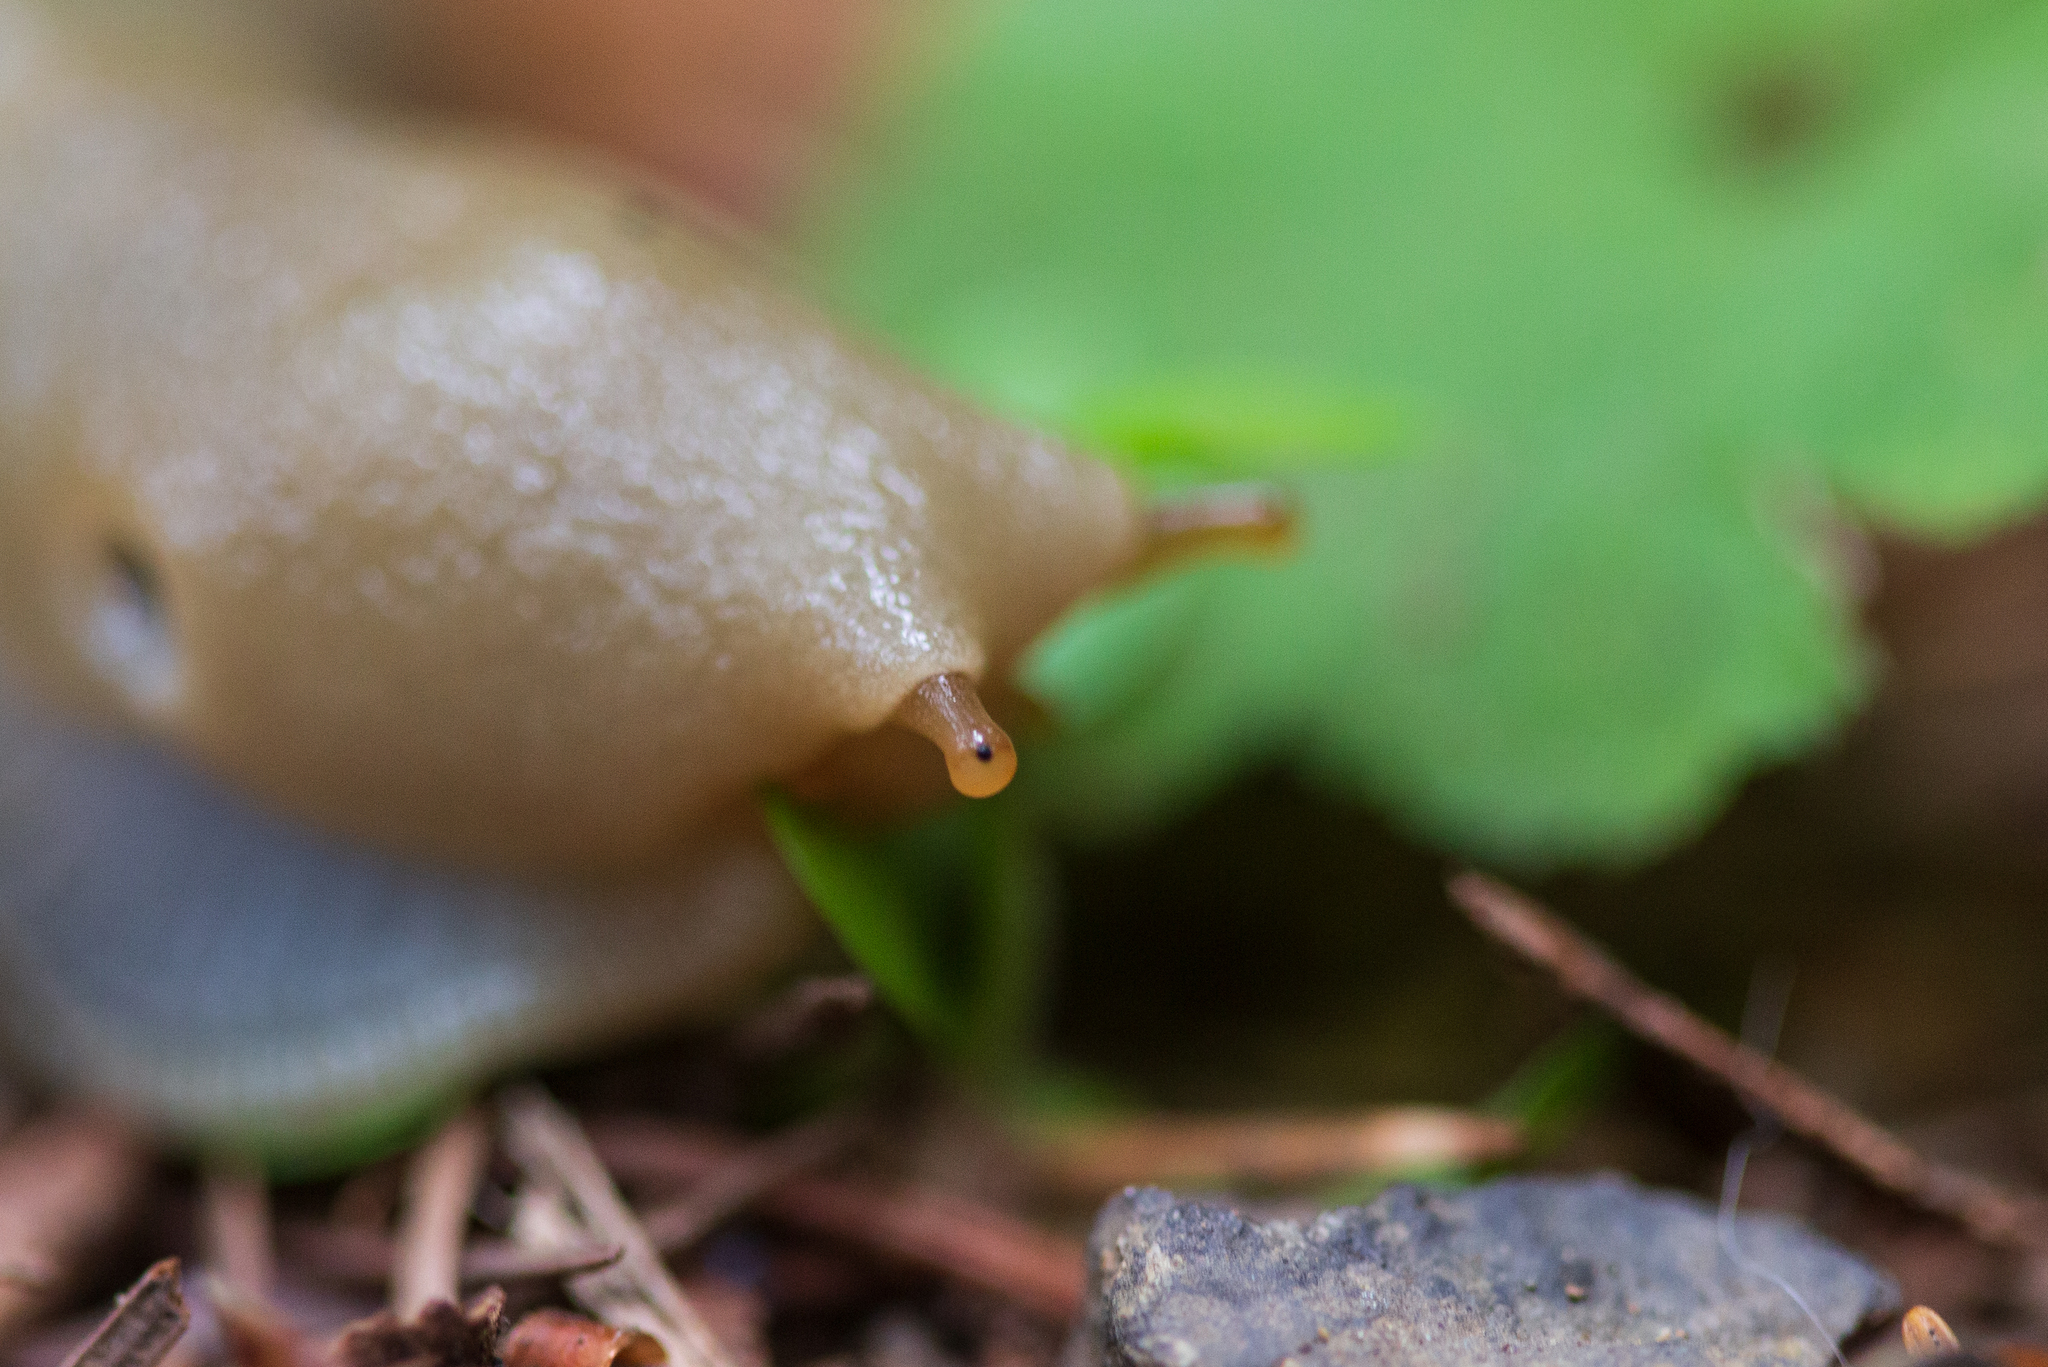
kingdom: Animalia
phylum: Mollusca
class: Gastropoda
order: Stylommatophora
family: Ariolimacidae
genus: Ariolimax
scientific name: Ariolimax columbianus
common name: Pacific banana slug
